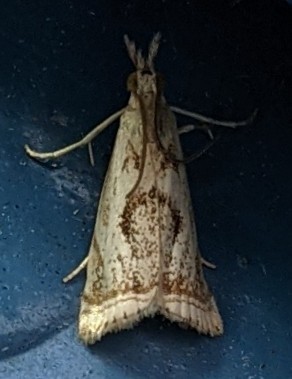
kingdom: Animalia
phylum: Arthropoda
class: Insecta
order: Lepidoptera
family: Crambidae
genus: Microcrambus
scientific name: Microcrambus elegans
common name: Elegant grass-veneer
